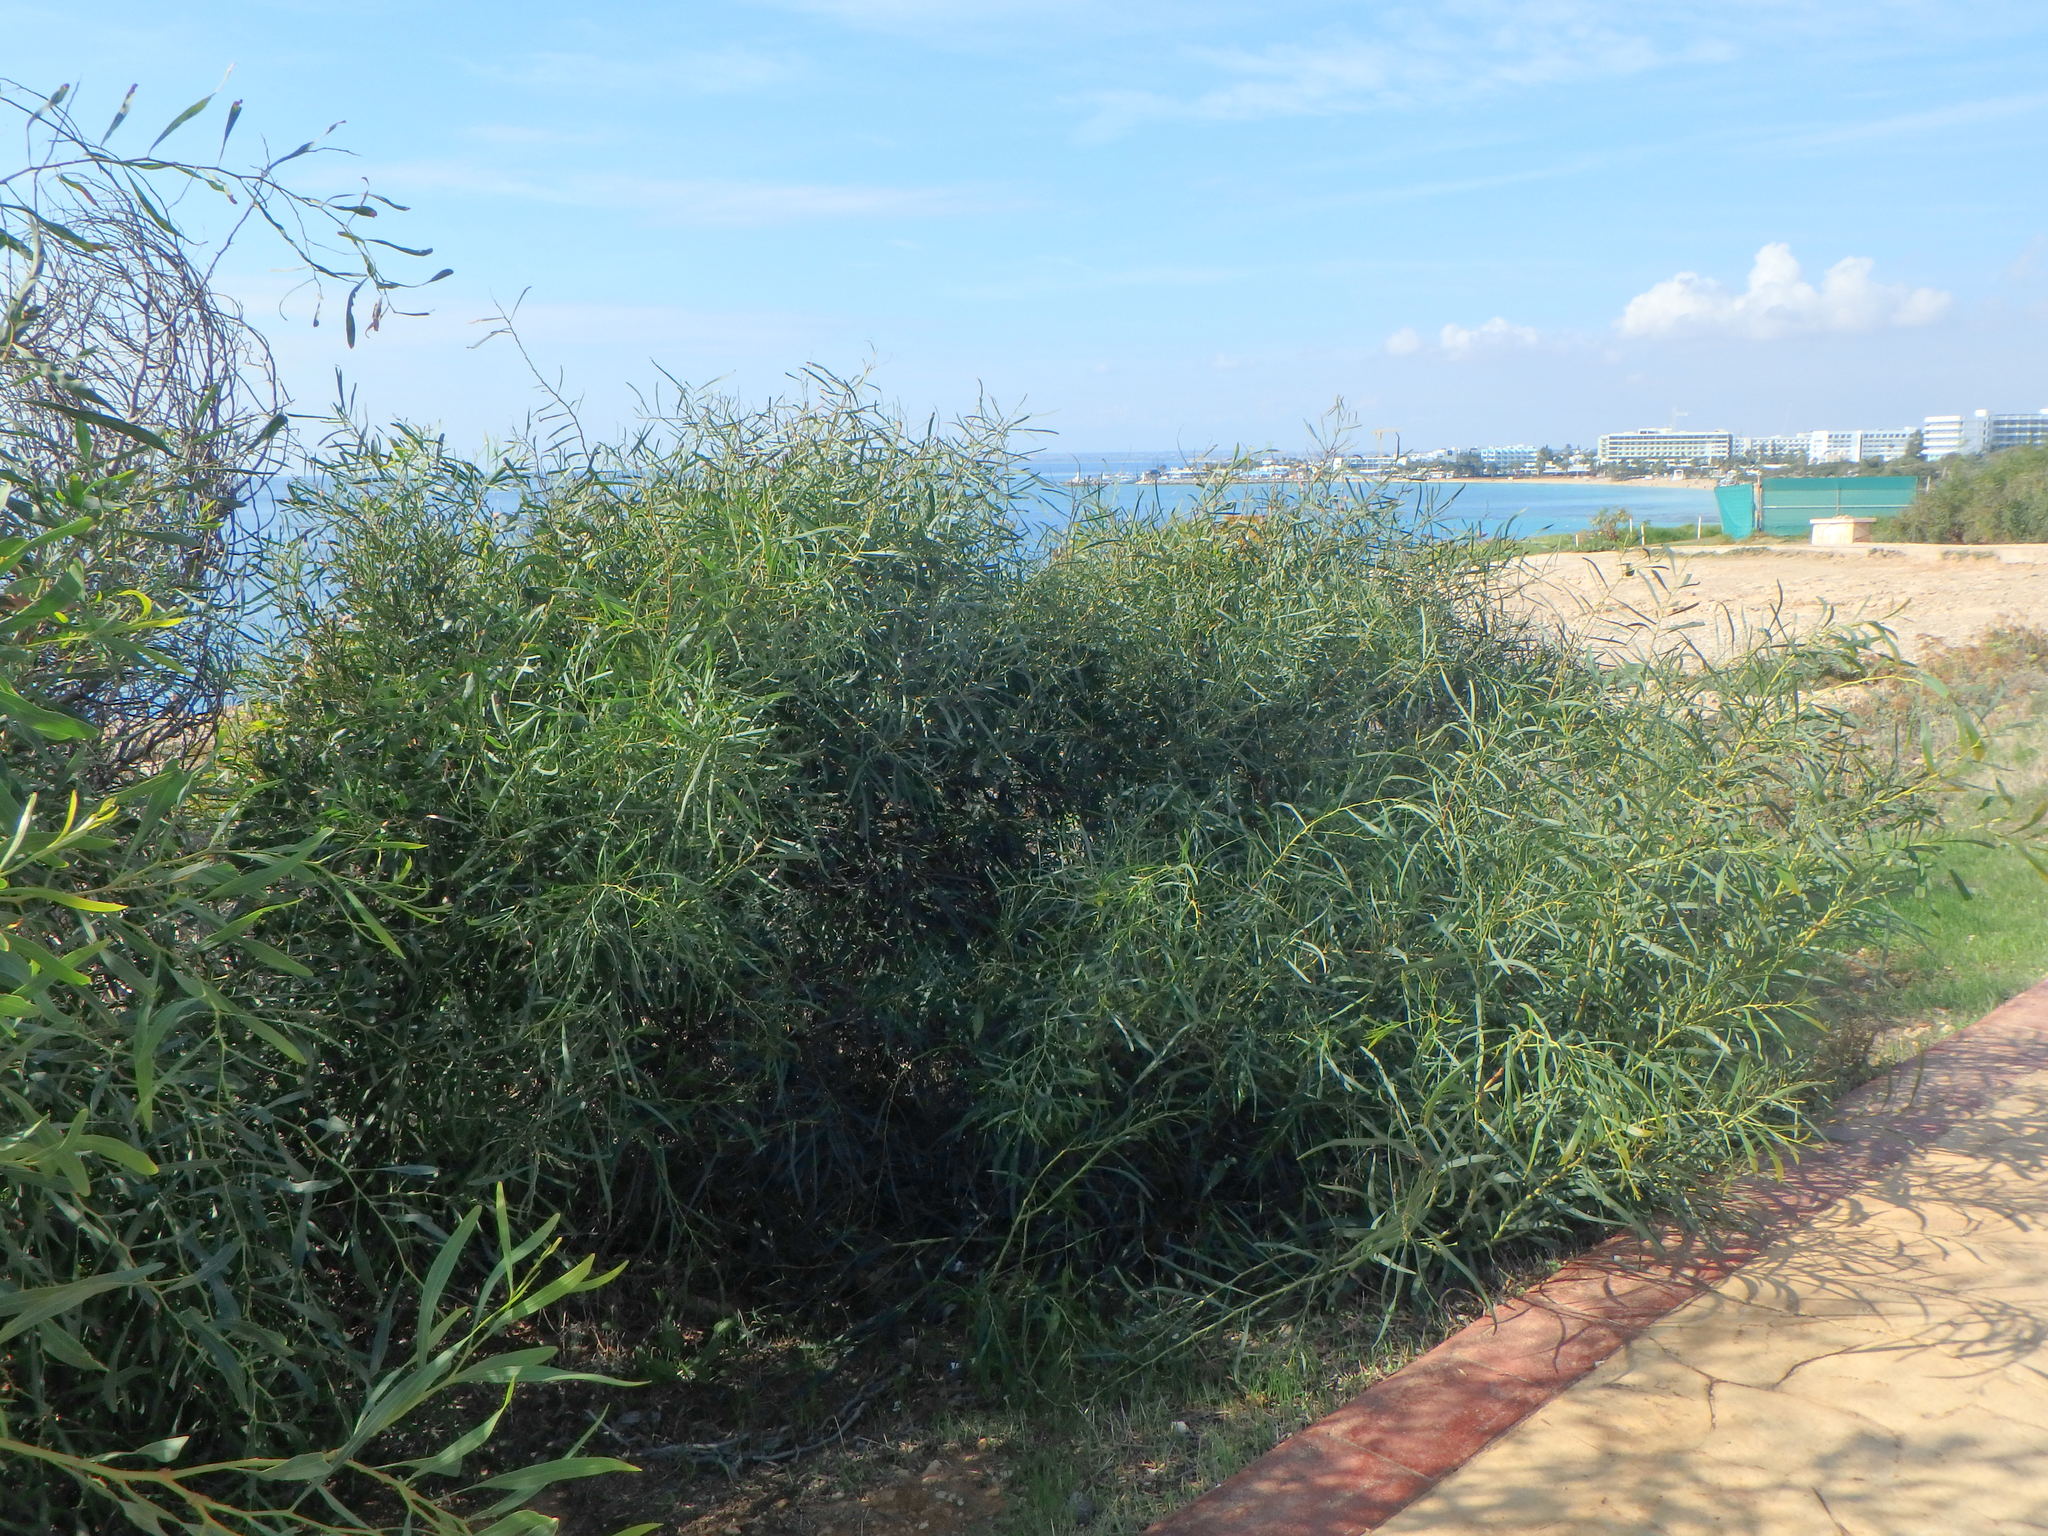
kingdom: Plantae
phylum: Tracheophyta
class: Magnoliopsida
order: Fabales
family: Fabaceae
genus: Acacia
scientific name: Acacia saligna
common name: Orange wattle
